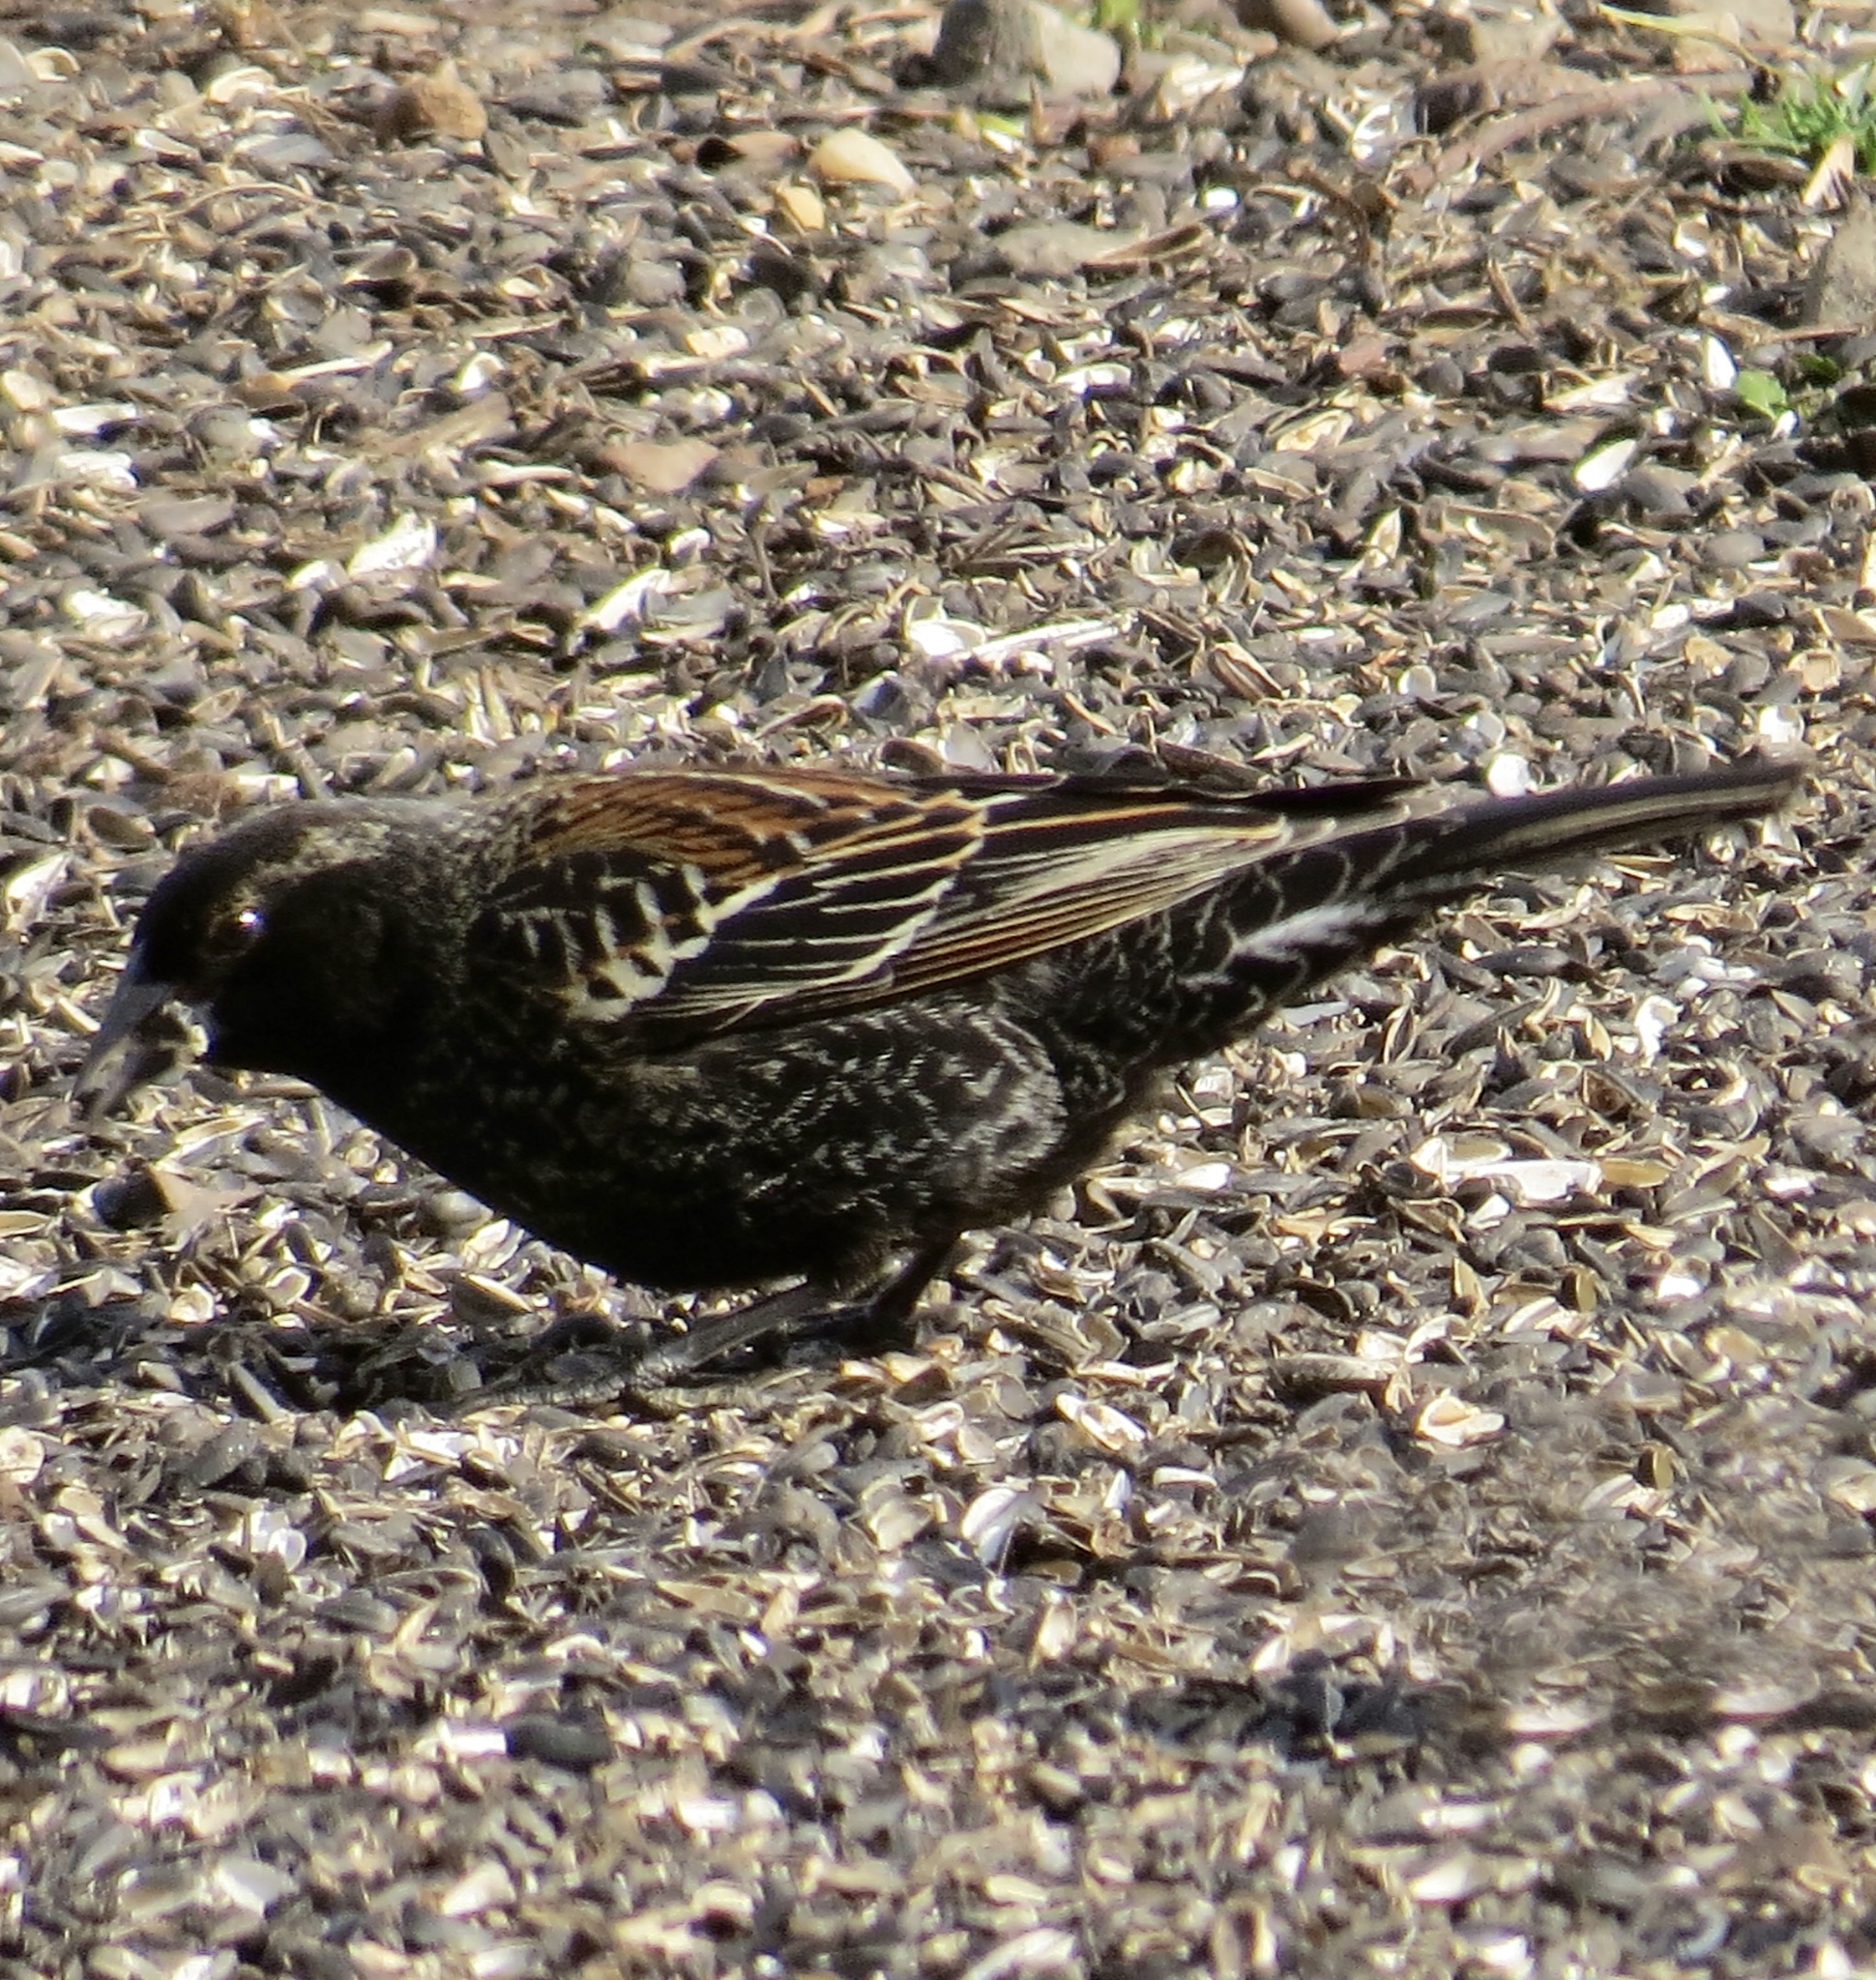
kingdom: Animalia
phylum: Chordata
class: Aves
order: Passeriformes
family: Icteridae
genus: Agelaius
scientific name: Agelaius phoeniceus
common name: Red-winged blackbird
